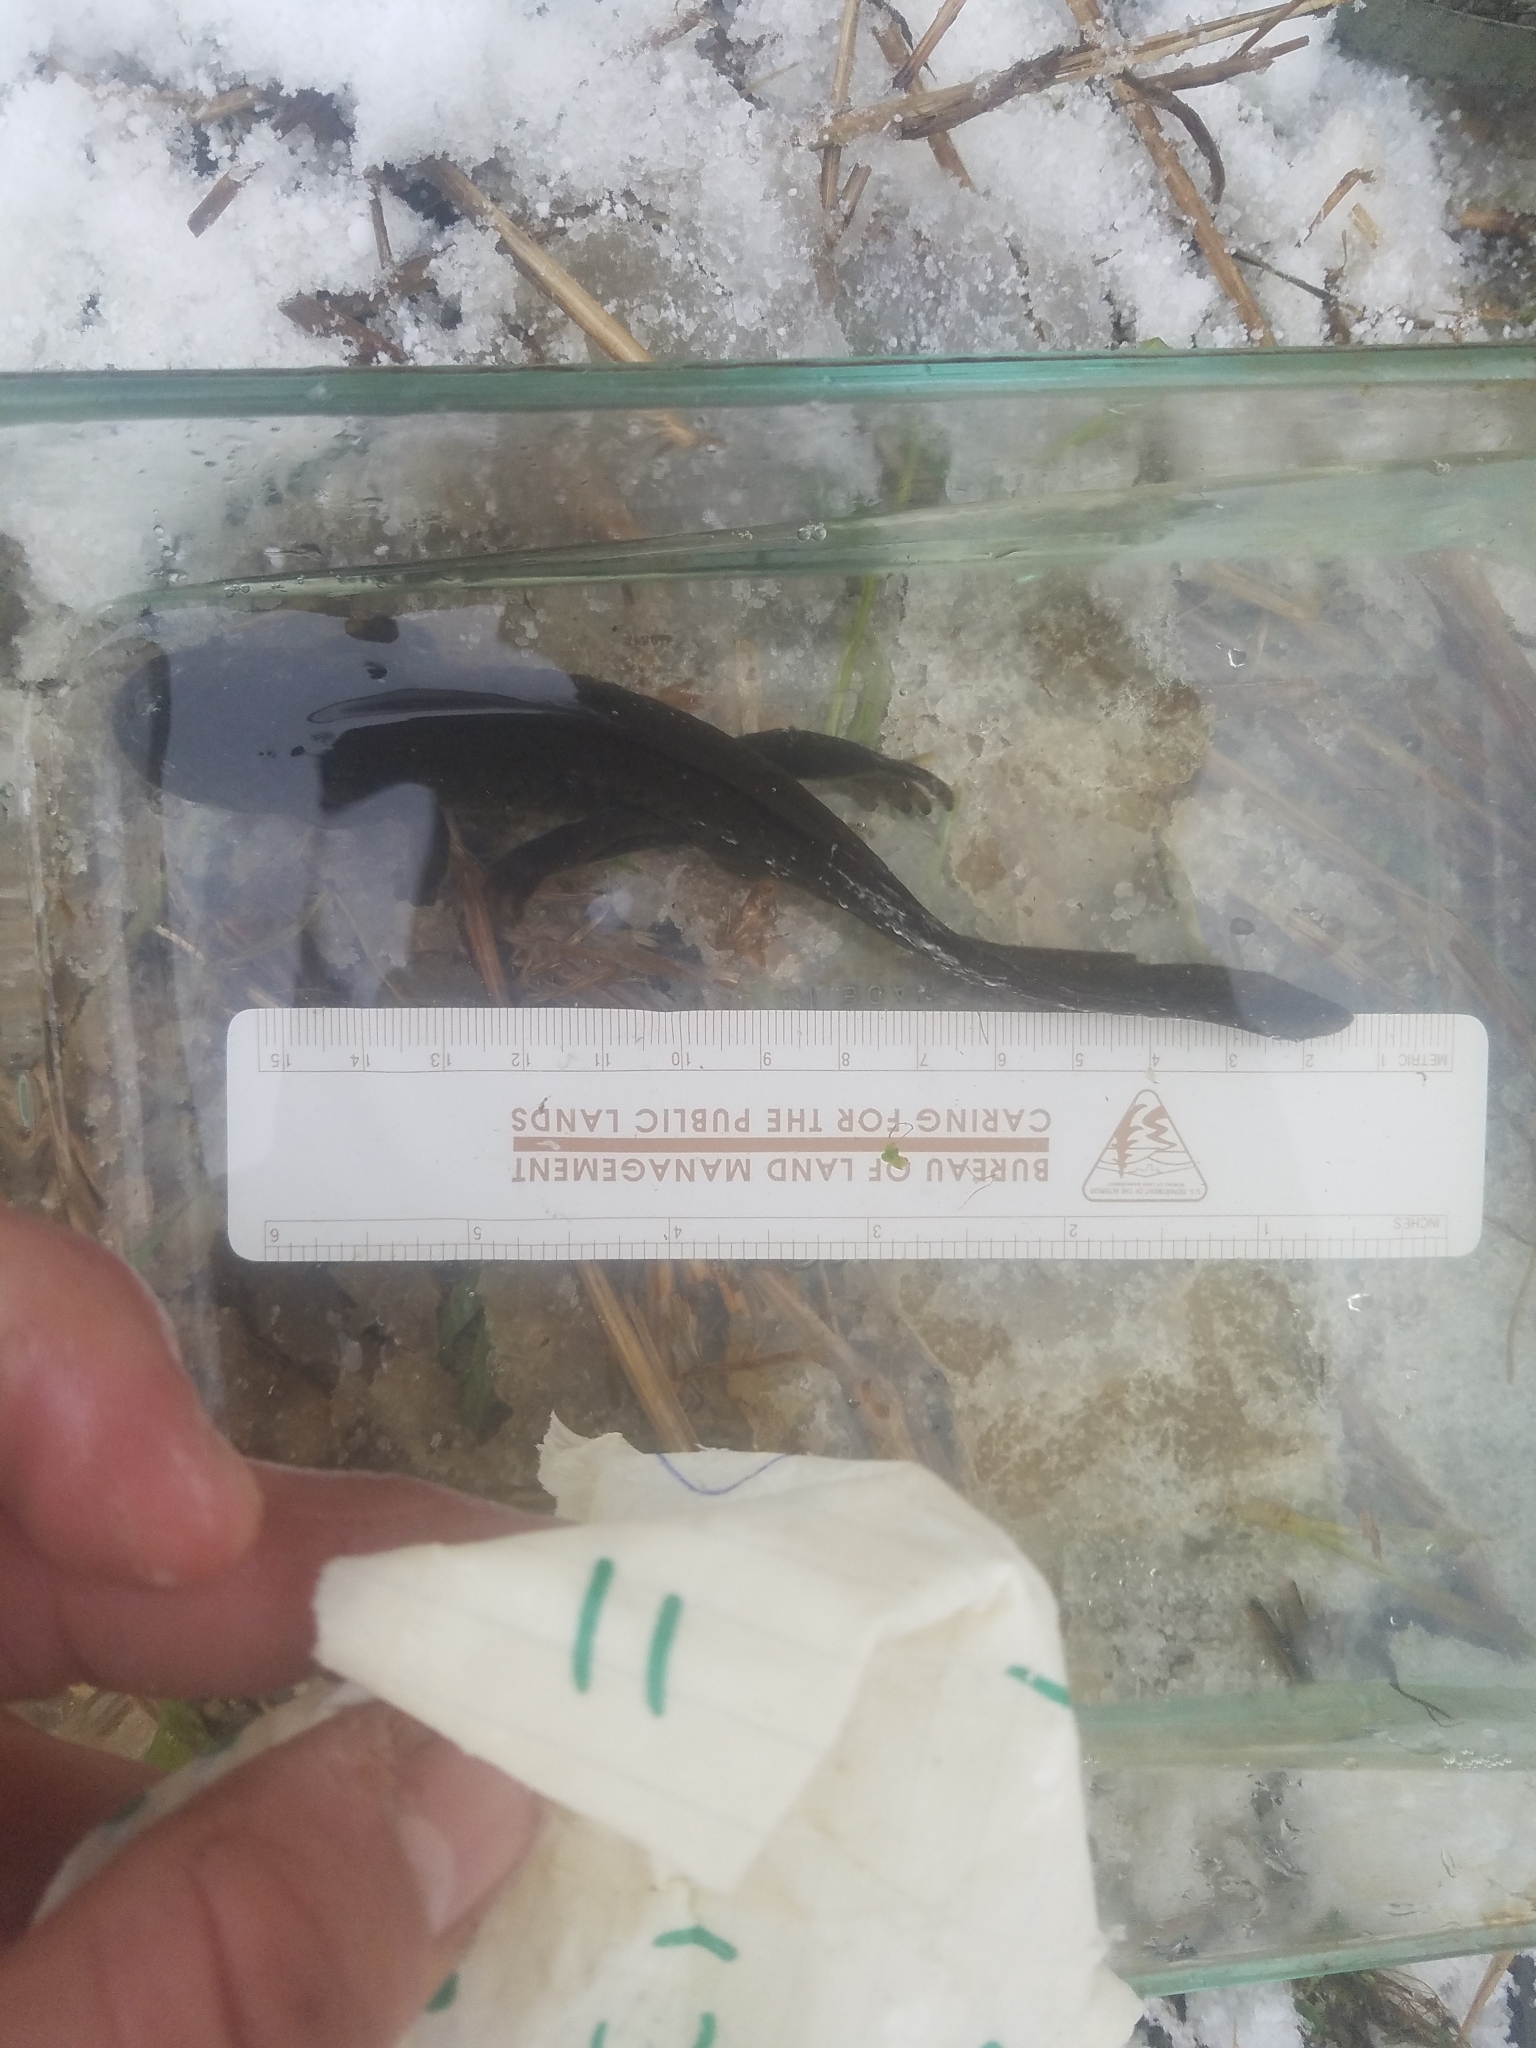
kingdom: Animalia
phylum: Chordata
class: Amphibia
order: Caudata
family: Ambystomatidae
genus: Ambystoma
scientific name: Ambystoma gracile
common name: Northwestern salamander
